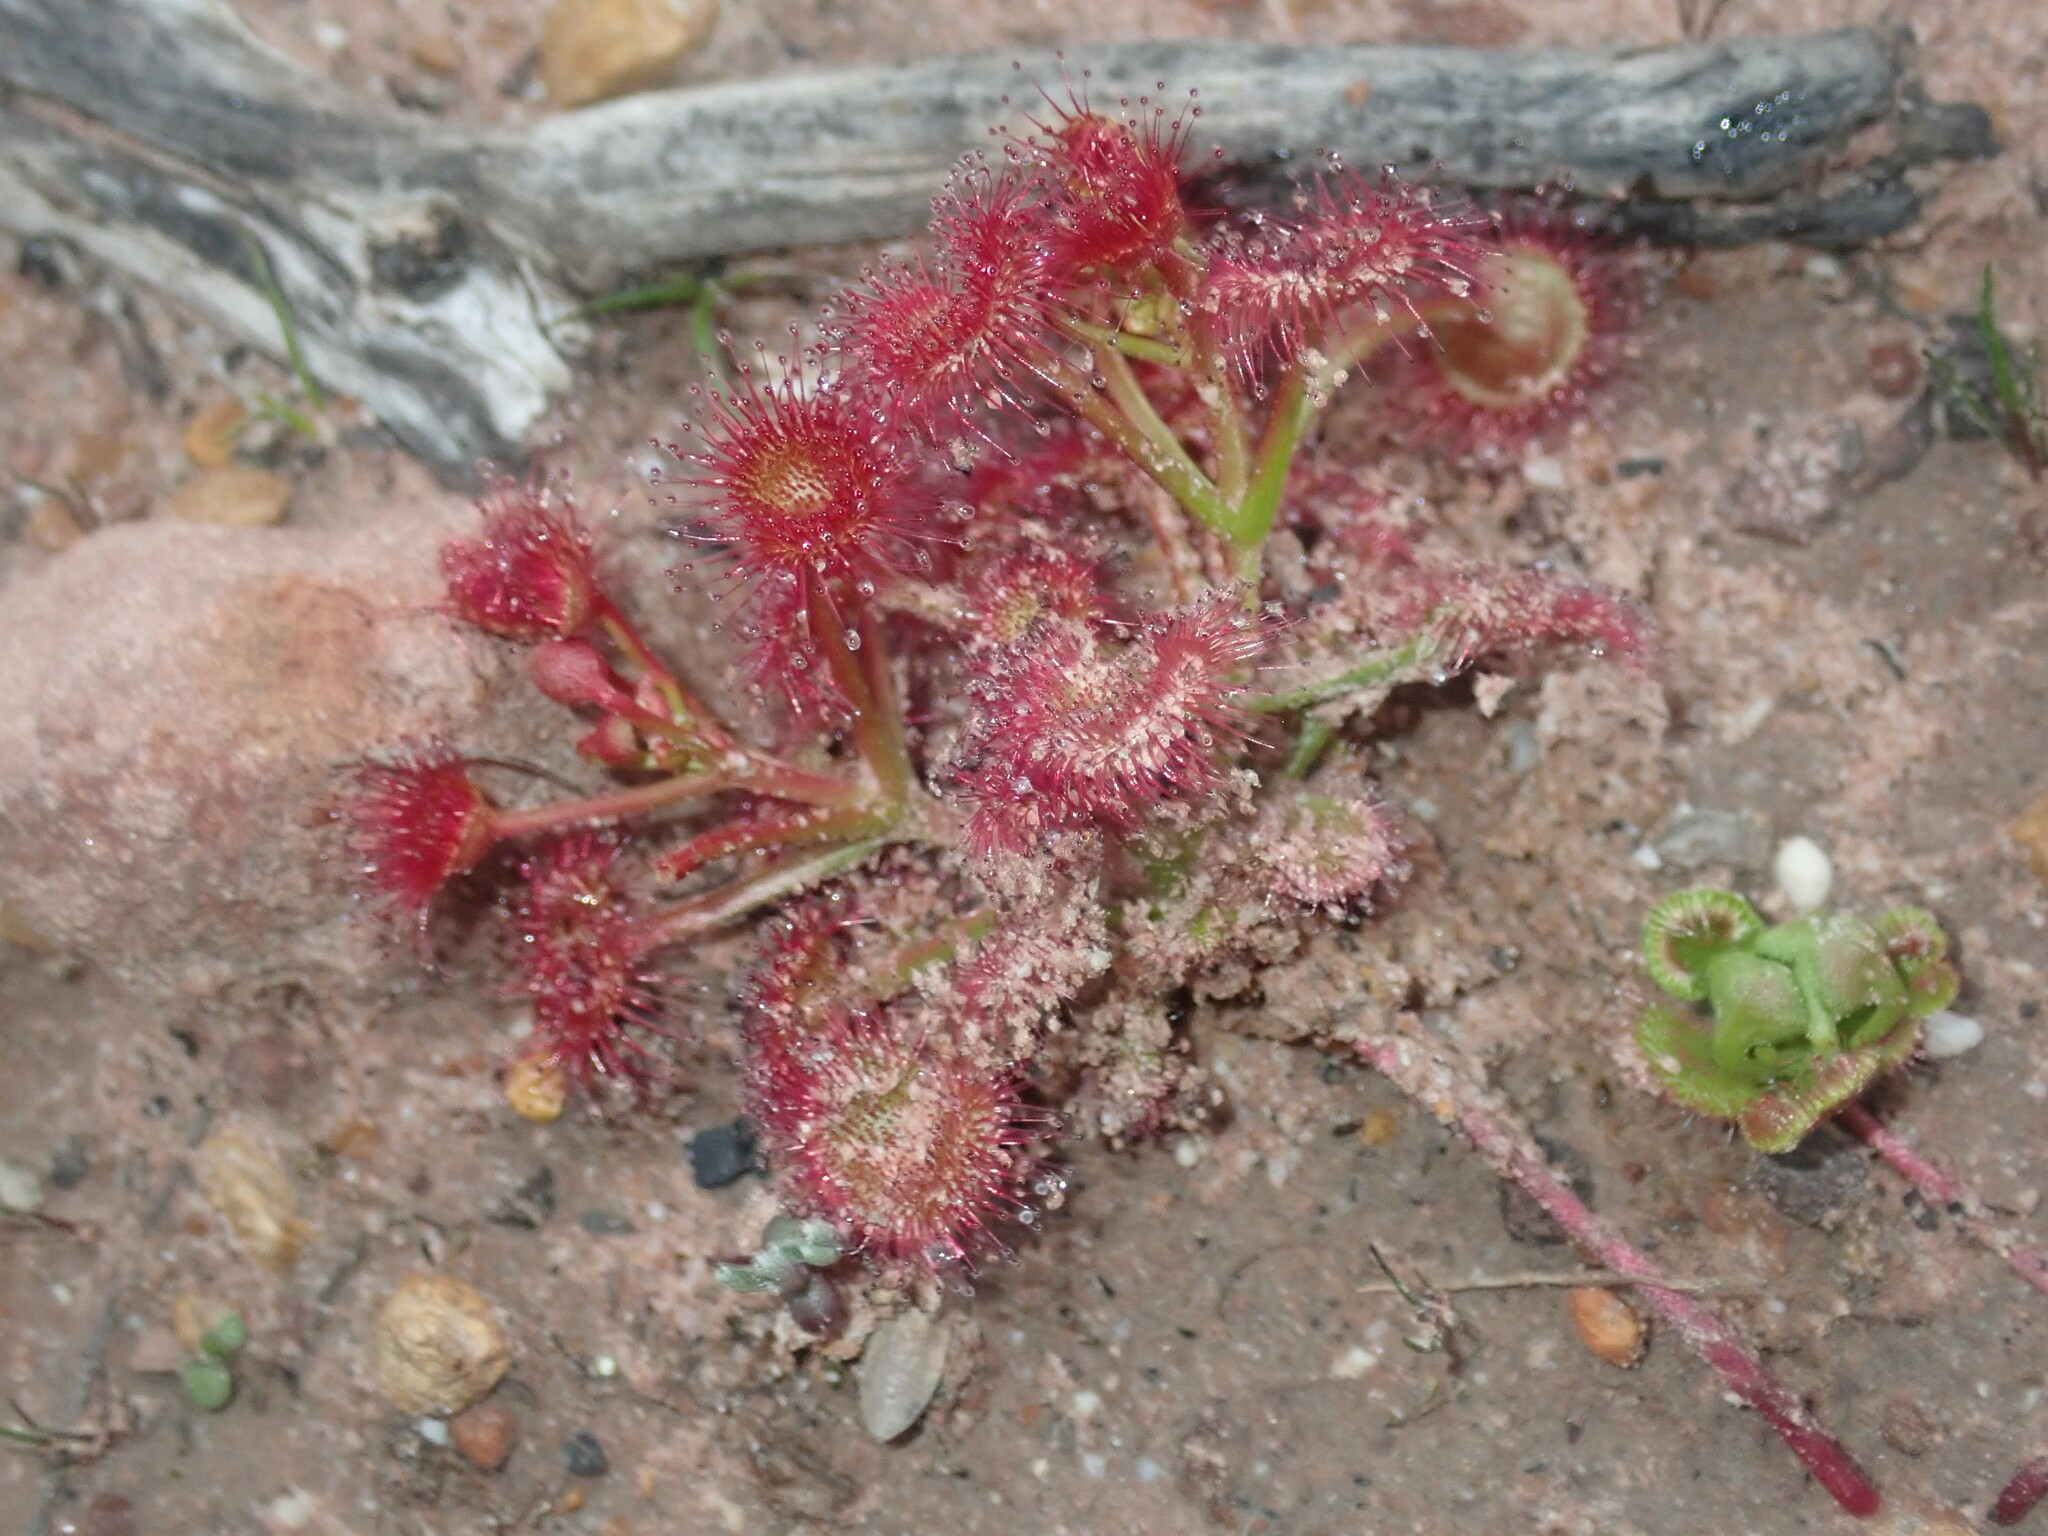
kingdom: Plantae
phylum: Tracheophyta
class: Magnoliopsida
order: Caryophyllales
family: Droseraceae
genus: Drosera
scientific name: Drosera stolonifera
